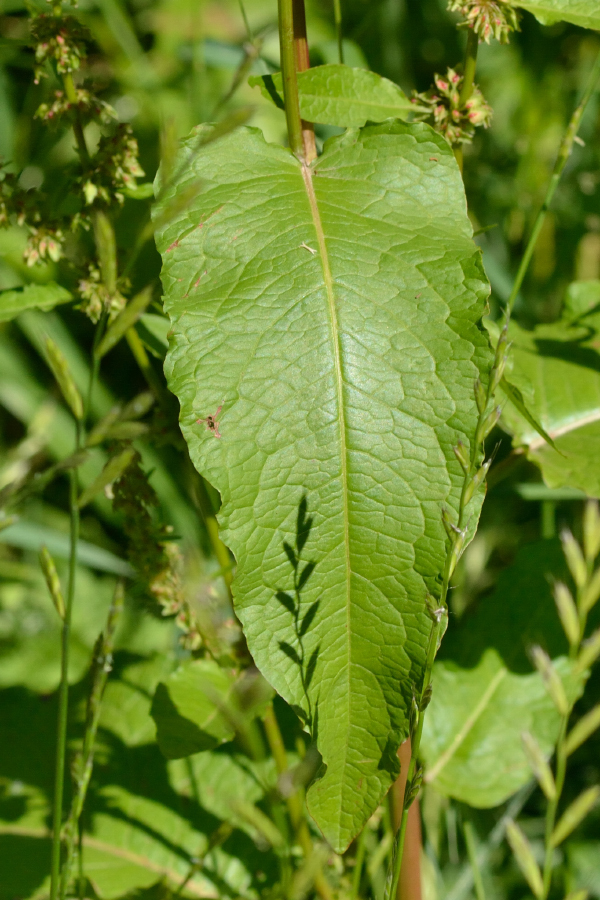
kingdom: Plantae
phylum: Tracheophyta
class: Magnoliopsida
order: Caryophyllales
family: Polygonaceae
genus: Rumex
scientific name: Rumex obtusifolius
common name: Bitter dock
